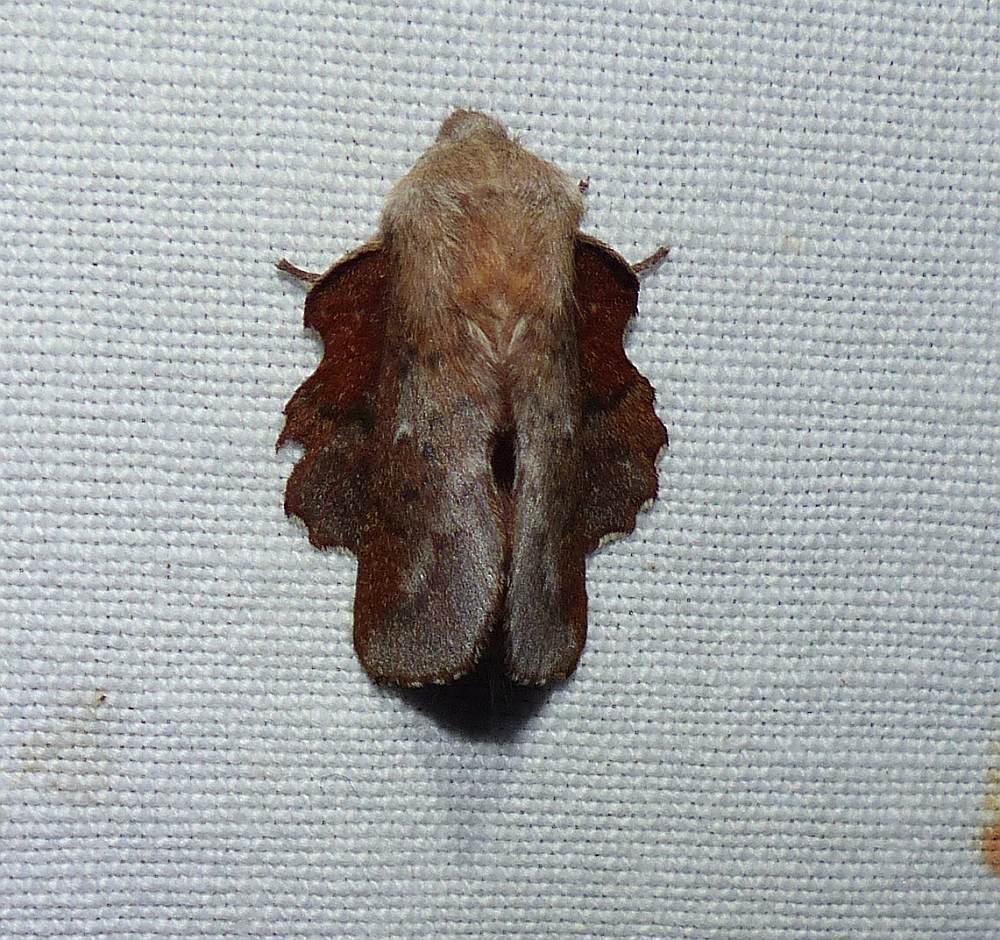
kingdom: Animalia
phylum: Arthropoda
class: Insecta
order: Lepidoptera
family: Lasiocampidae
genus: Phyllodesma
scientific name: Phyllodesma americana
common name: American lappet moth
